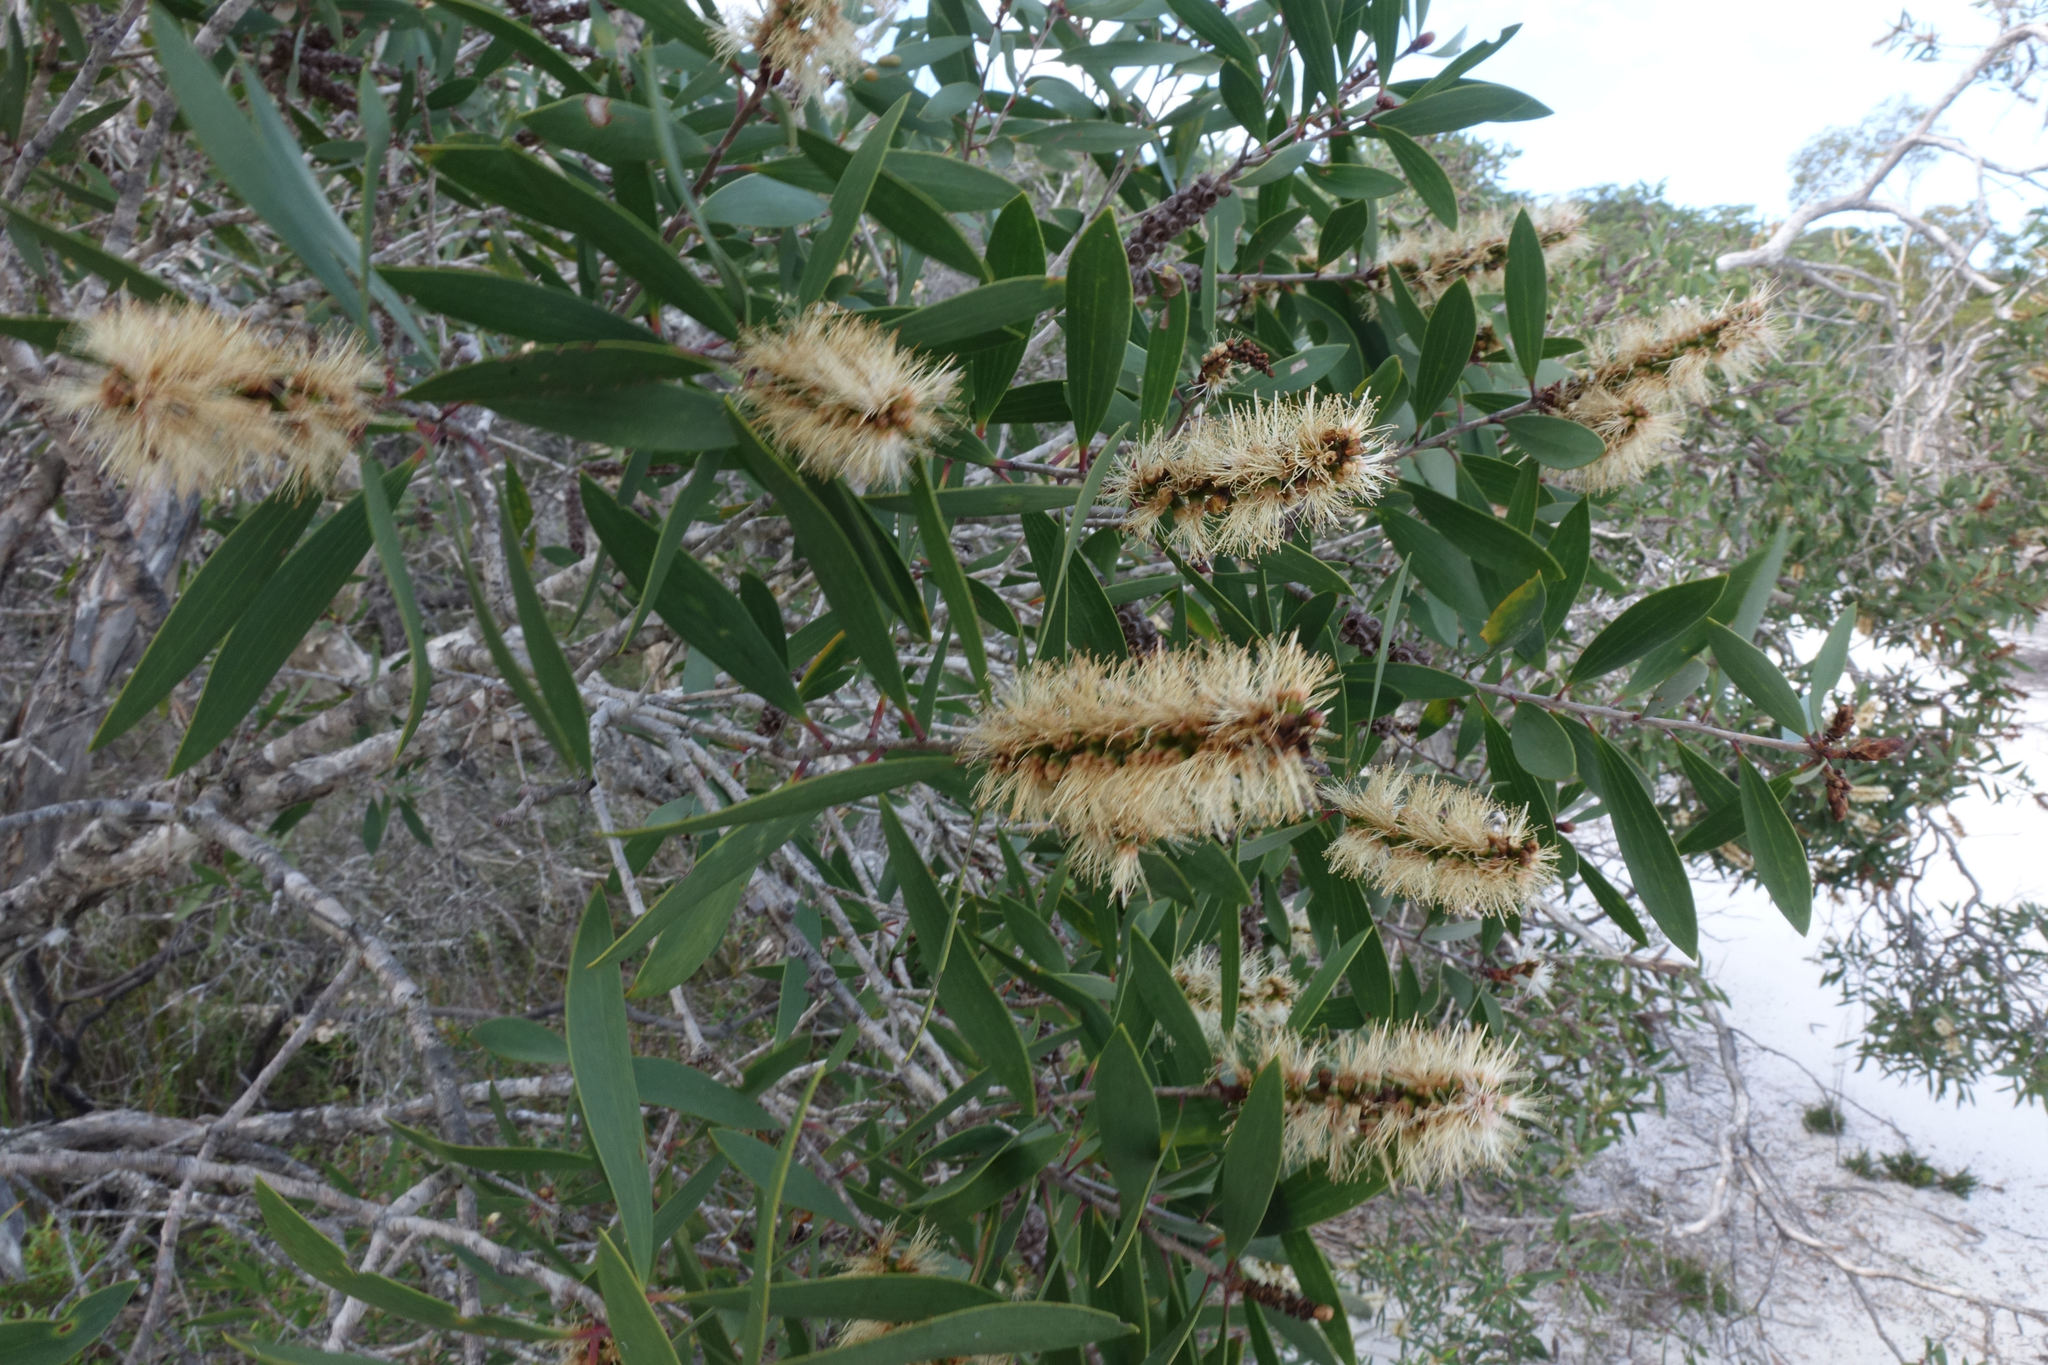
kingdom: Plantae
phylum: Tracheophyta
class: Magnoliopsida
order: Myrtales
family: Myrtaceae
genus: Melaleuca
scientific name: Melaleuca quinquenervia
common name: Punktree
